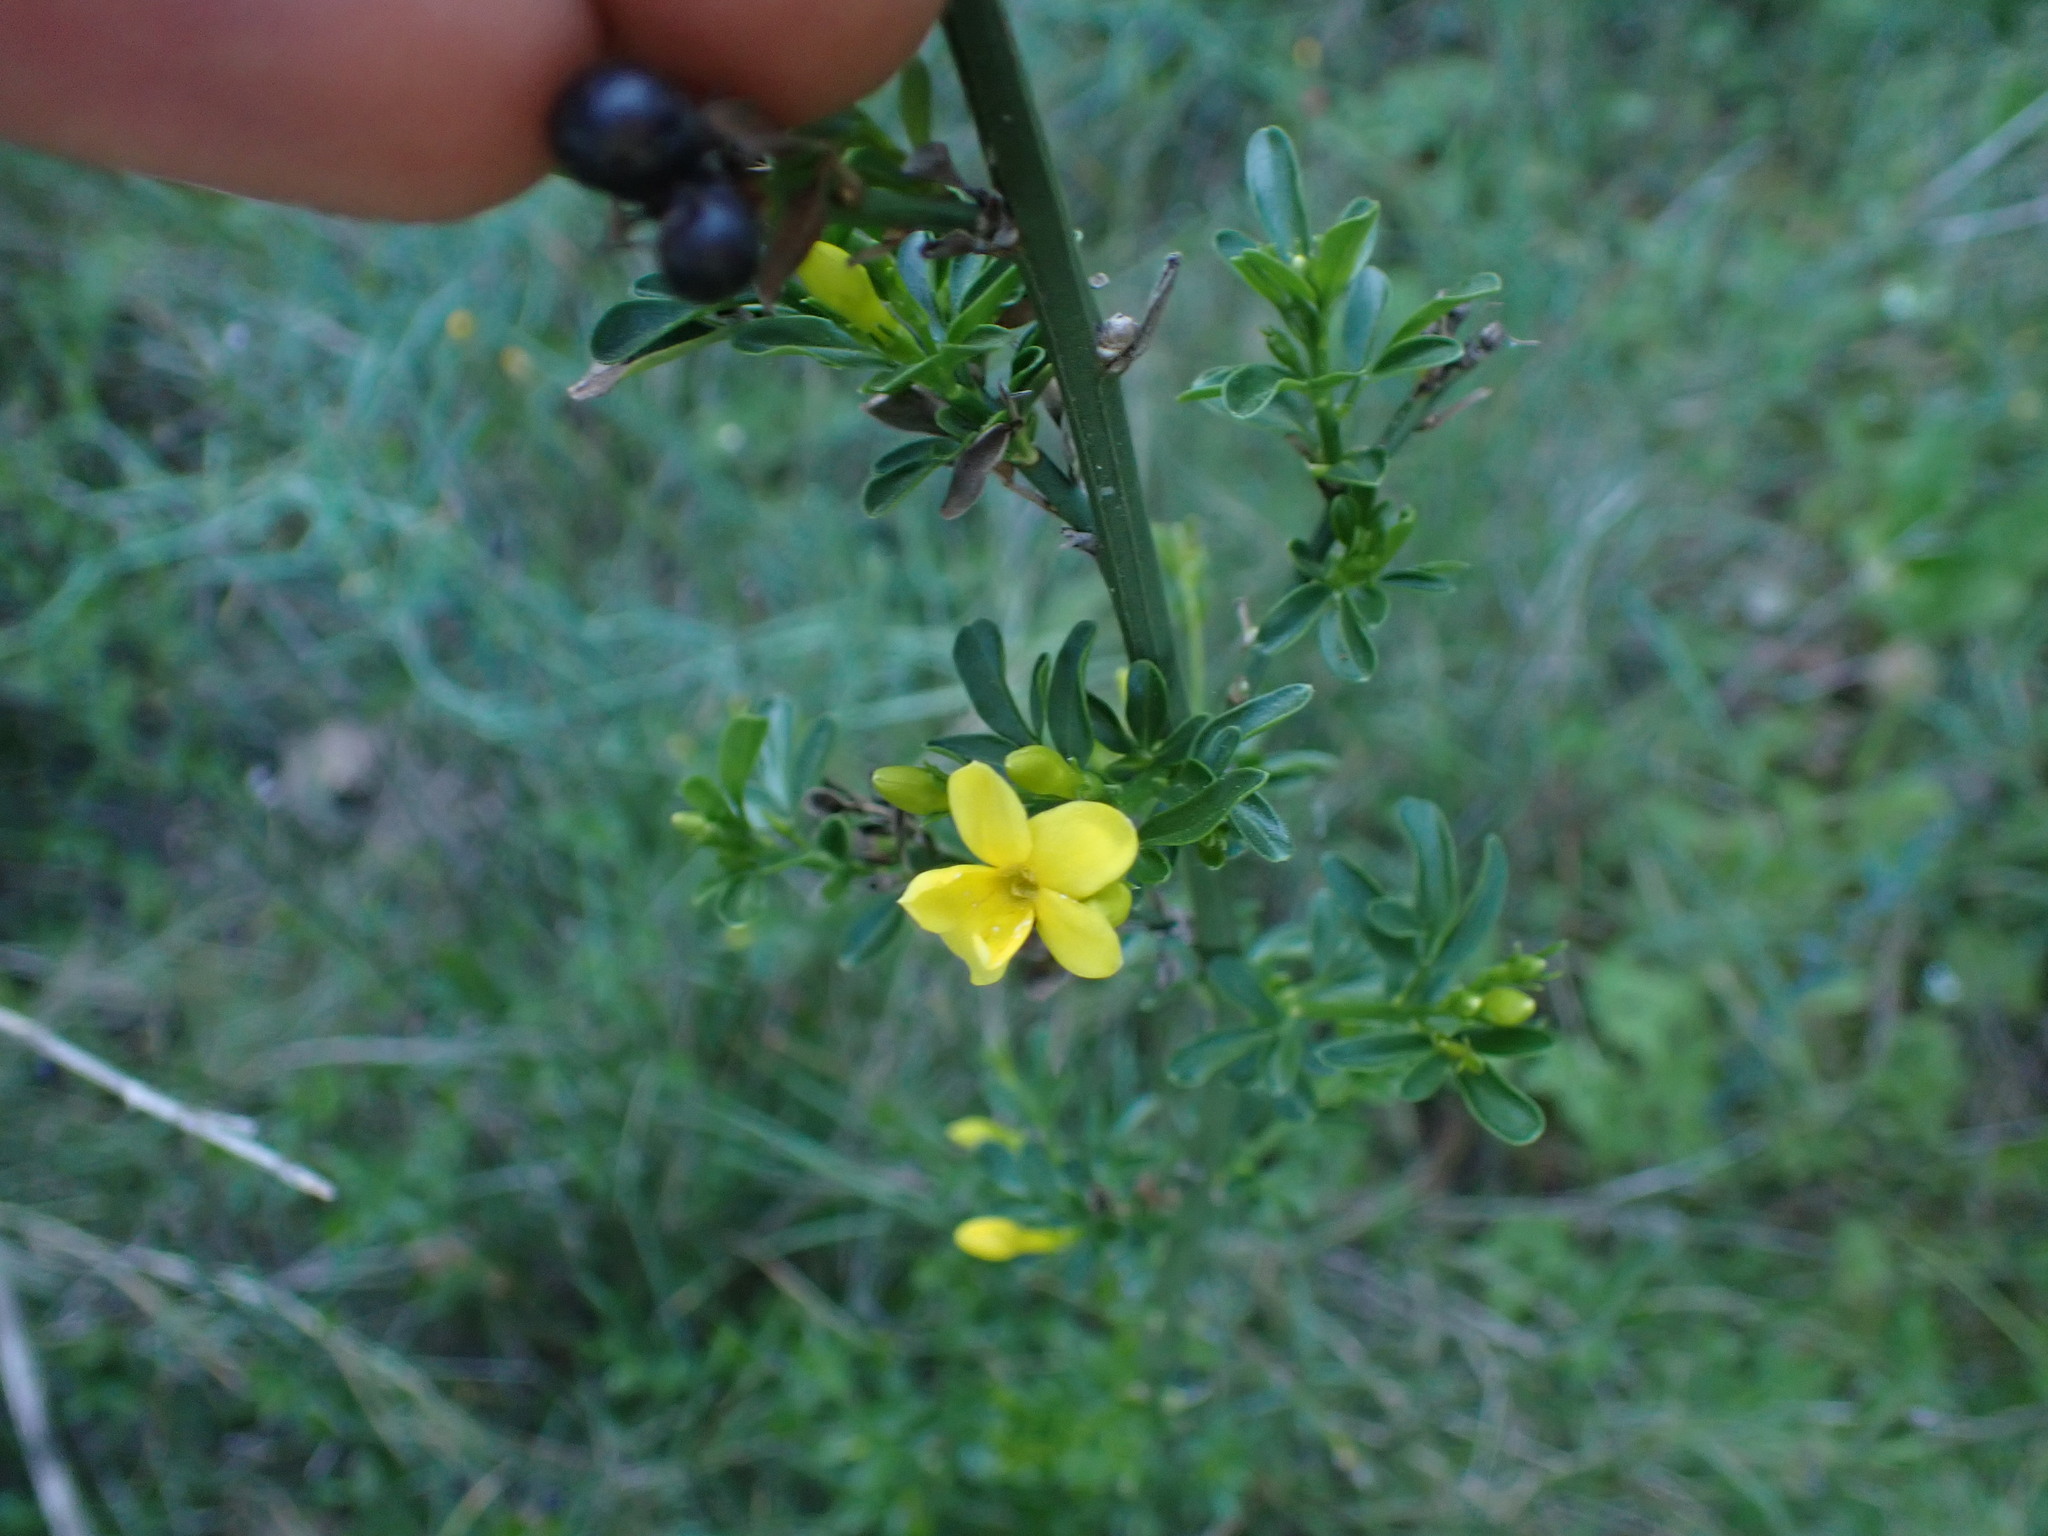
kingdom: Plantae
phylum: Tracheophyta
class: Magnoliopsida
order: Lamiales
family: Oleaceae
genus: Chrysojasminum
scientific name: Chrysojasminum fruticans
